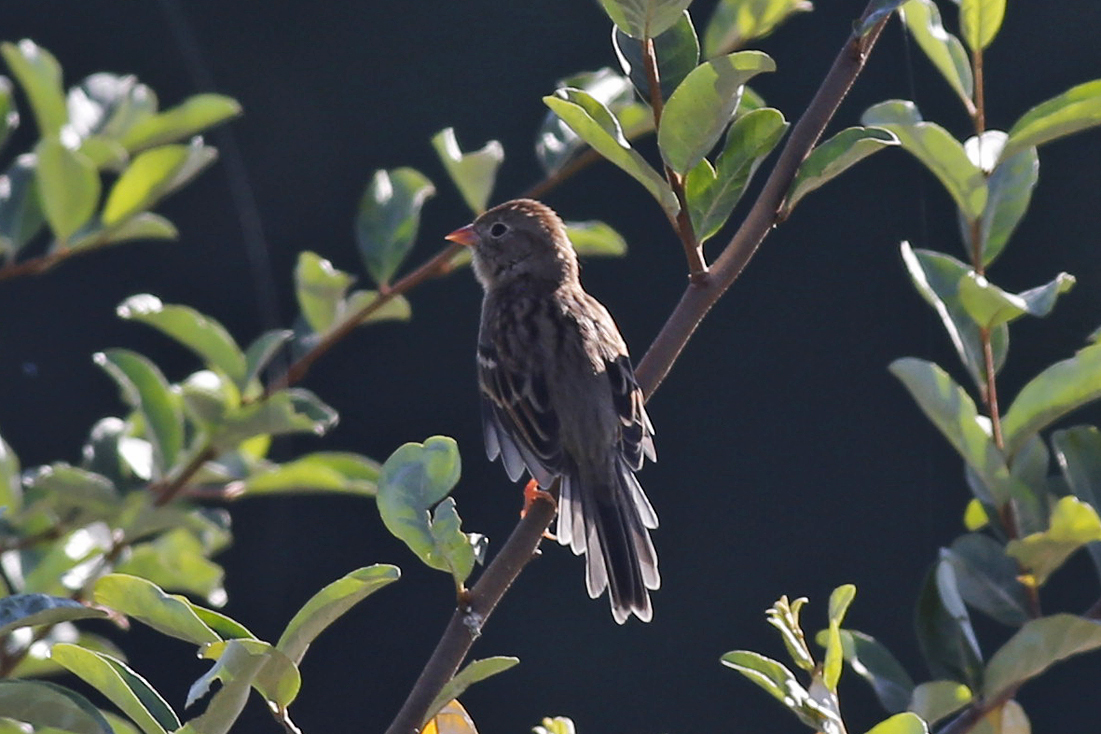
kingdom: Animalia
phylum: Chordata
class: Aves
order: Passeriformes
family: Passerellidae
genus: Spizella
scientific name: Spizella pusilla
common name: Field sparrow
